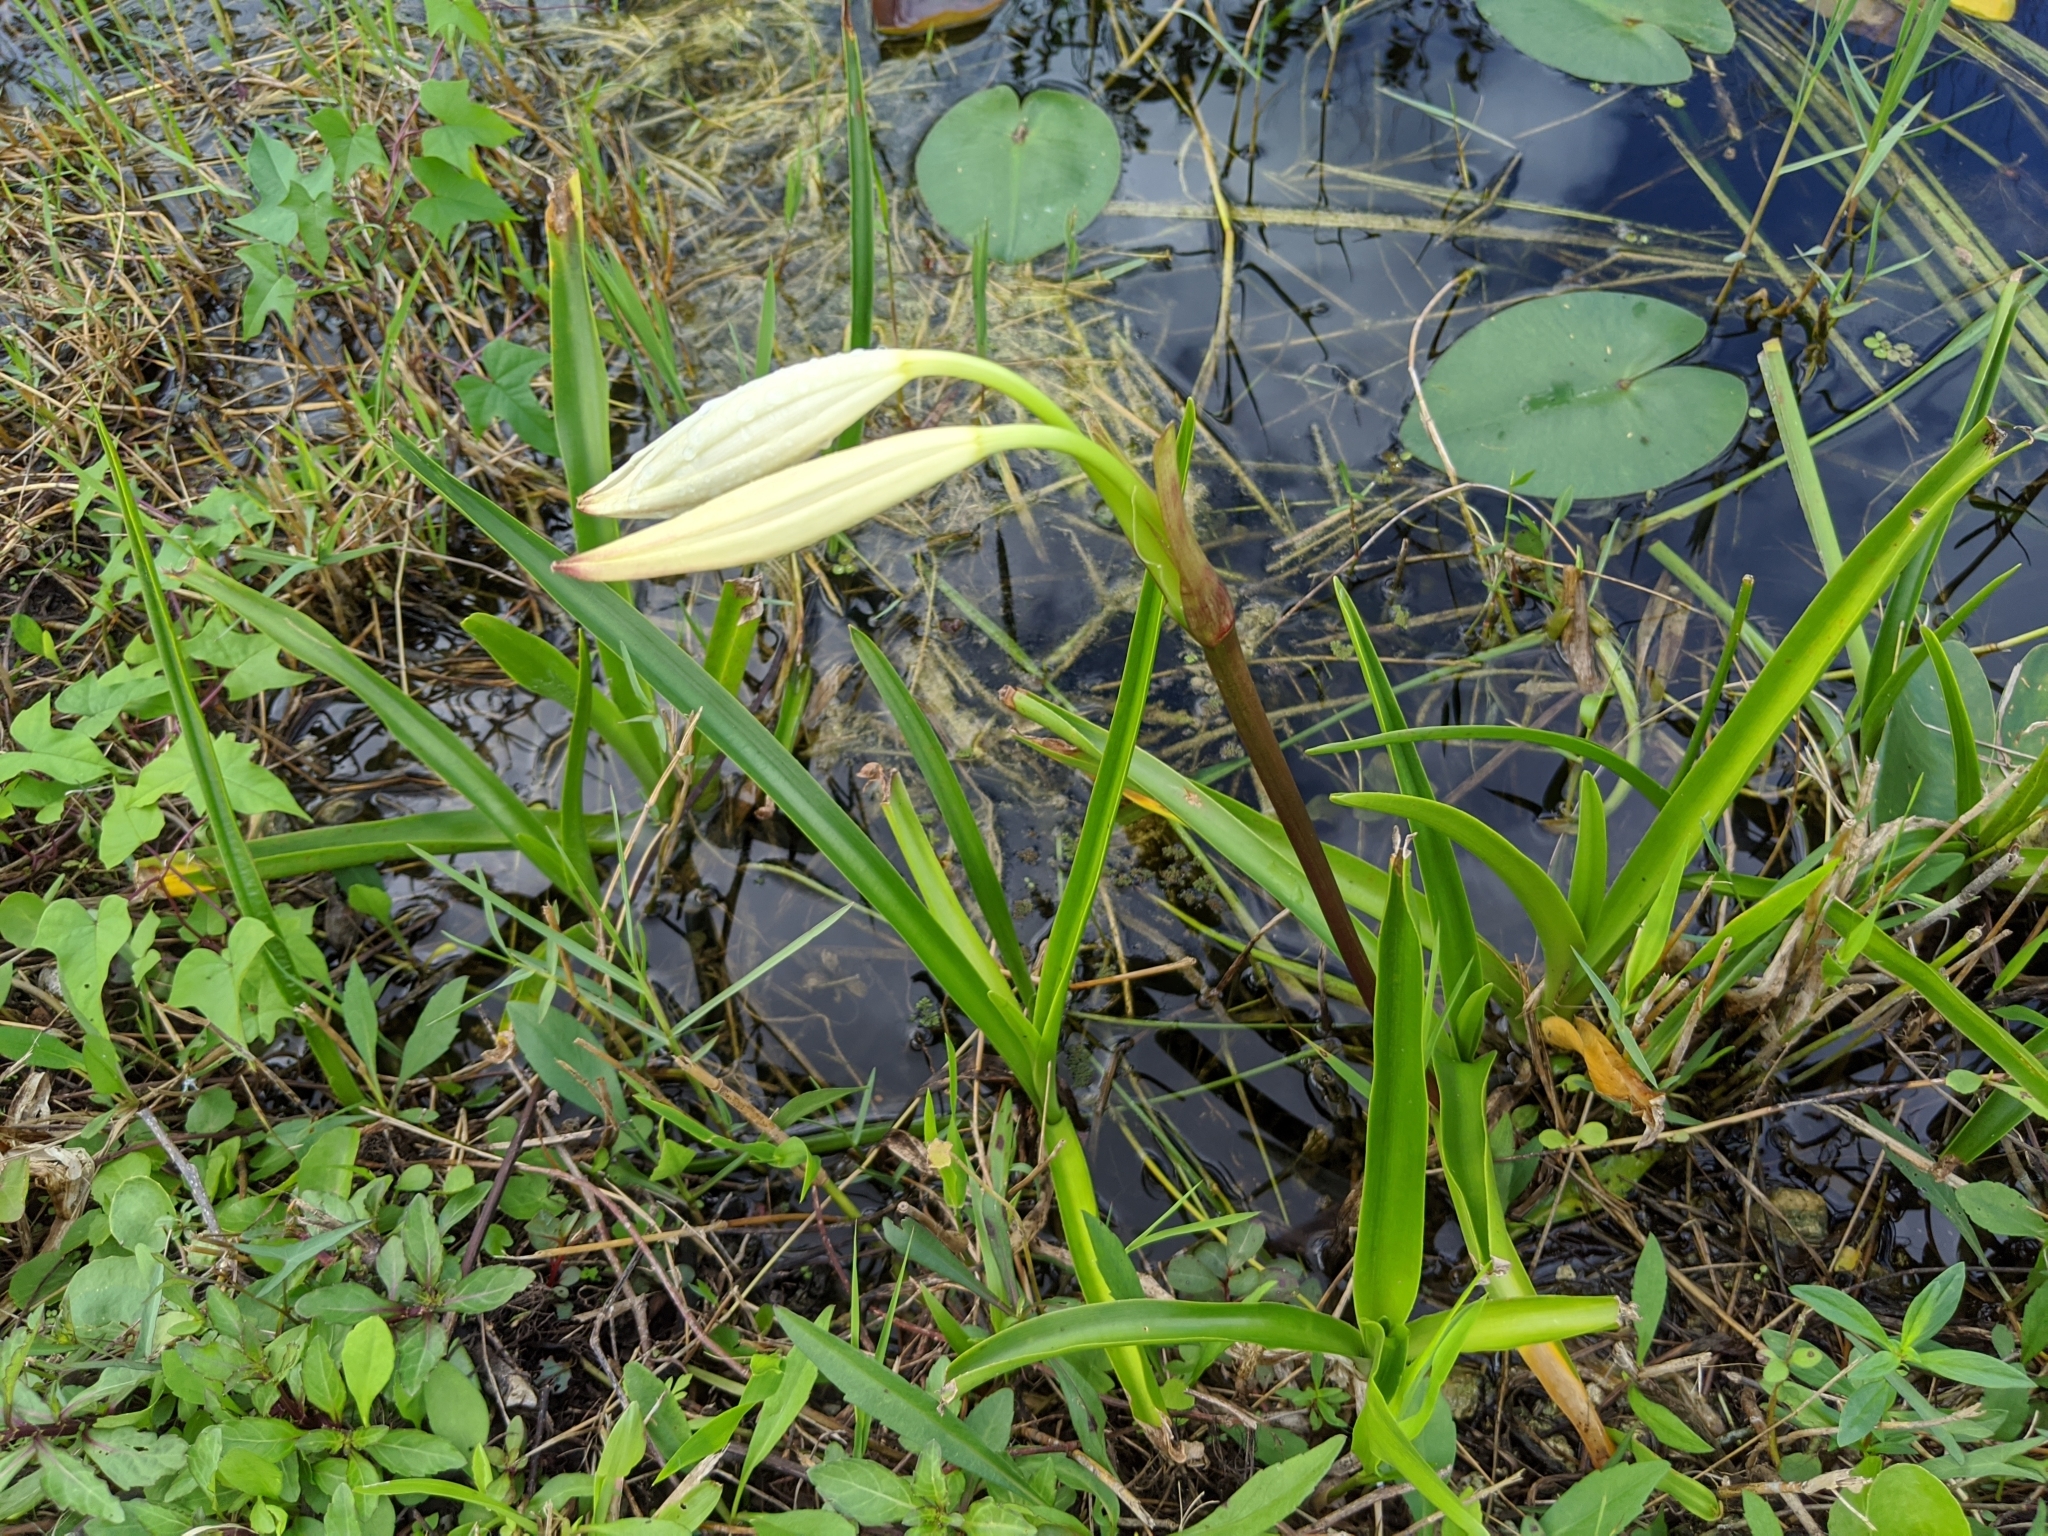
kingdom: Plantae
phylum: Tracheophyta
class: Liliopsida
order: Asparagales
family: Amaryllidaceae
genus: Crinum
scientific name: Crinum americanum
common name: Florida swamp-lily
